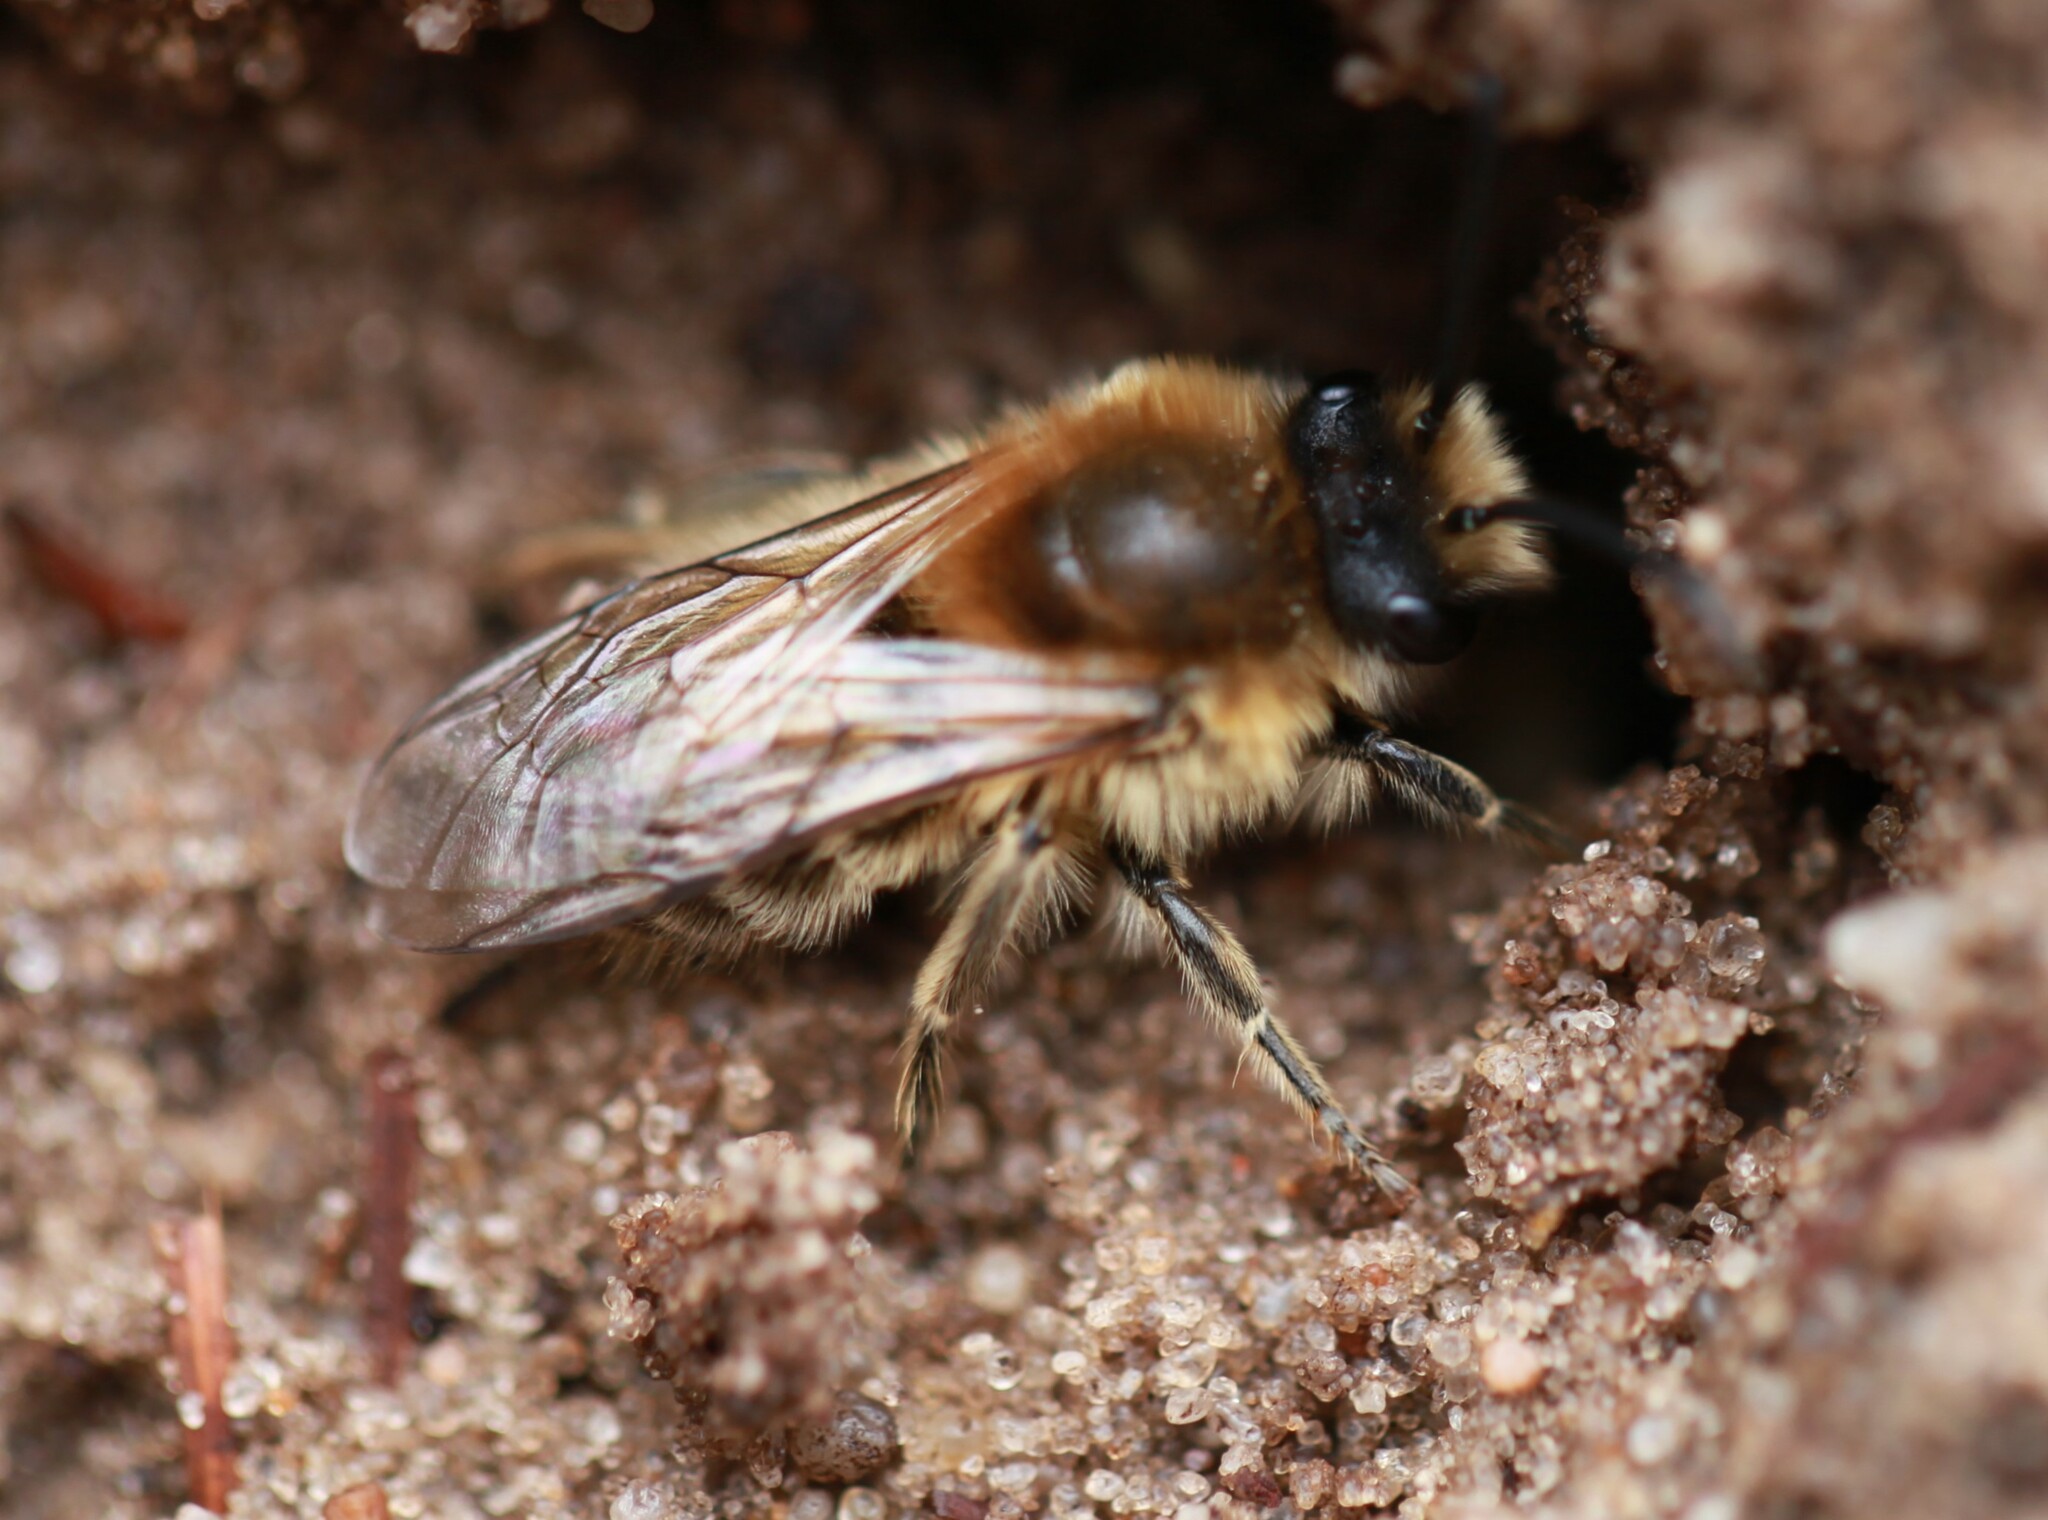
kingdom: Animalia
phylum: Arthropoda
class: Insecta
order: Hymenoptera
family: Colletidae
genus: Colletes
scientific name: Colletes cunicularius
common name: Early colletes
